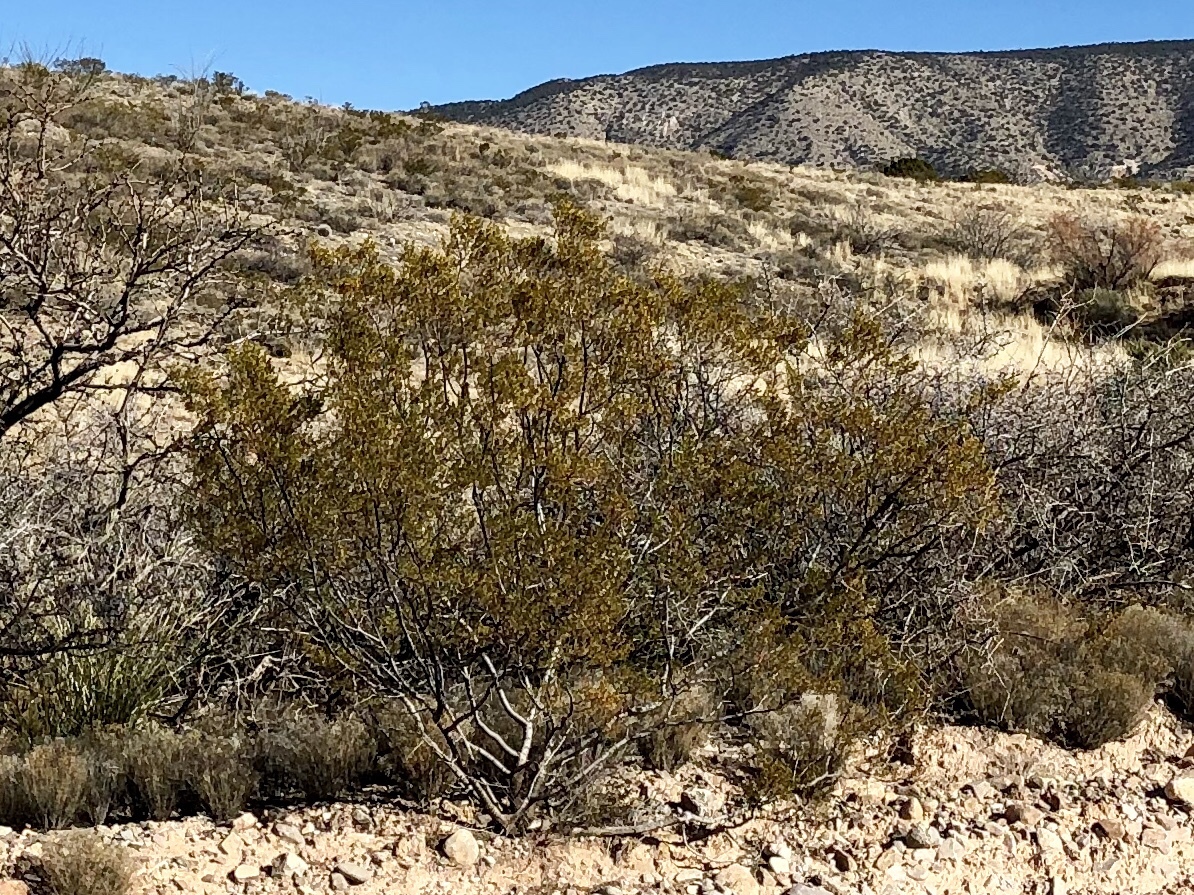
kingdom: Plantae
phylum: Tracheophyta
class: Magnoliopsida
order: Zygophyllales
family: Zygophyllaceae
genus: Larrea
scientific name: Larrea tridentata
